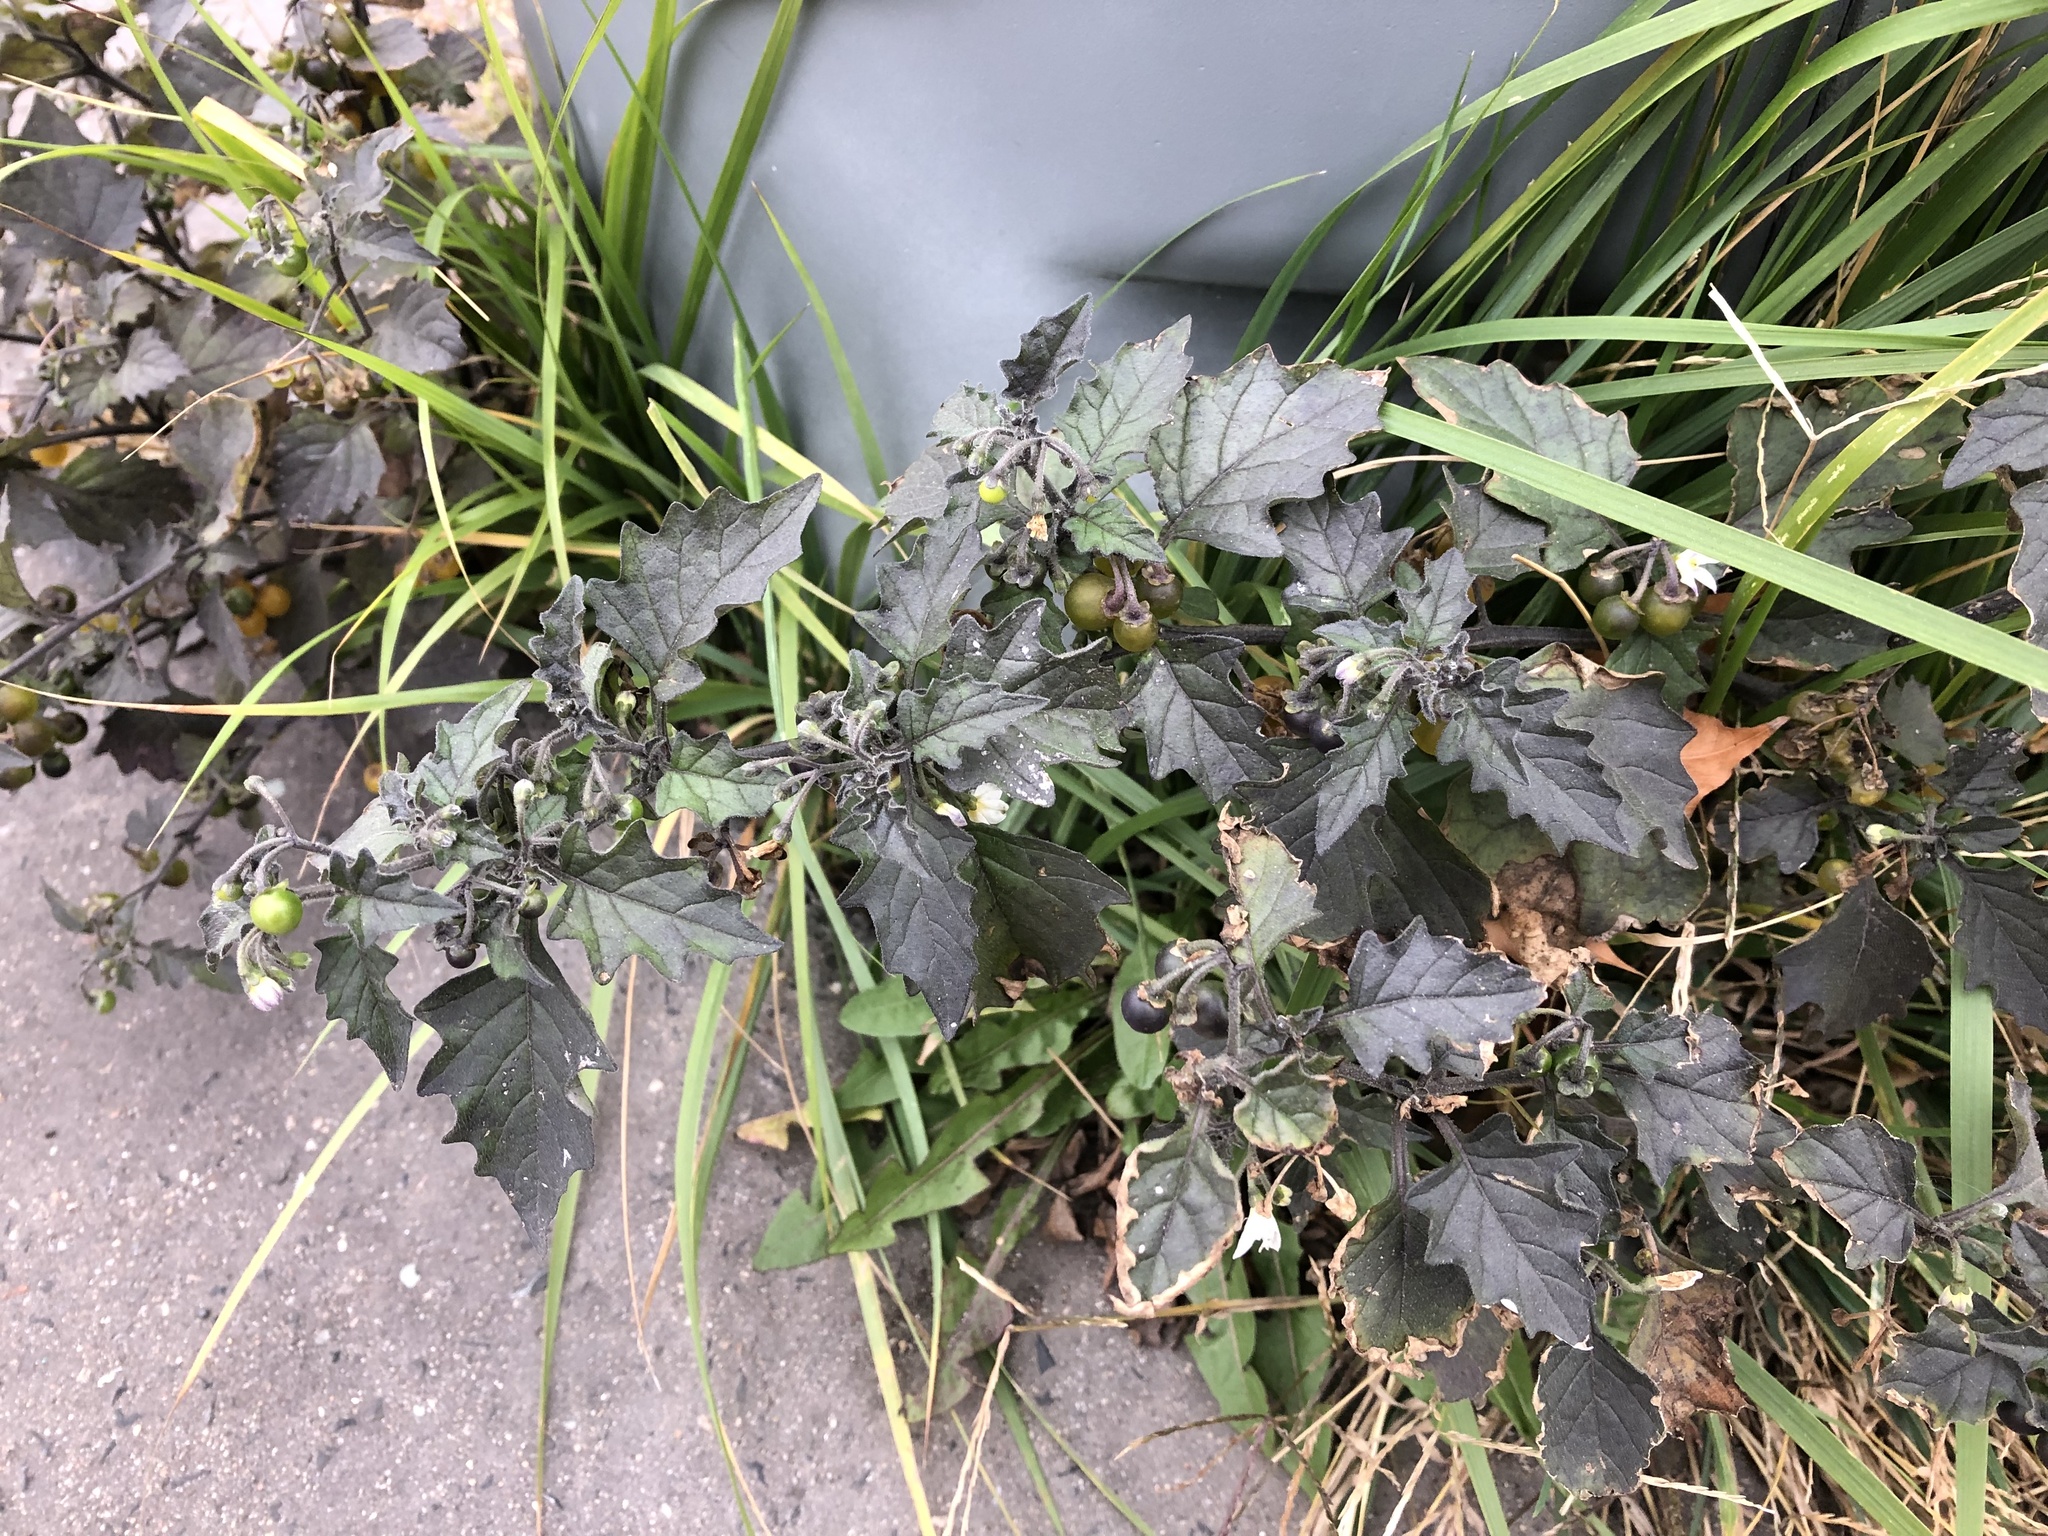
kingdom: Plantae
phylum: Tracheophyta
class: Magnoliopsida
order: Solanales
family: Solanaceae
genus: Solanum
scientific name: Solanum decipiens
